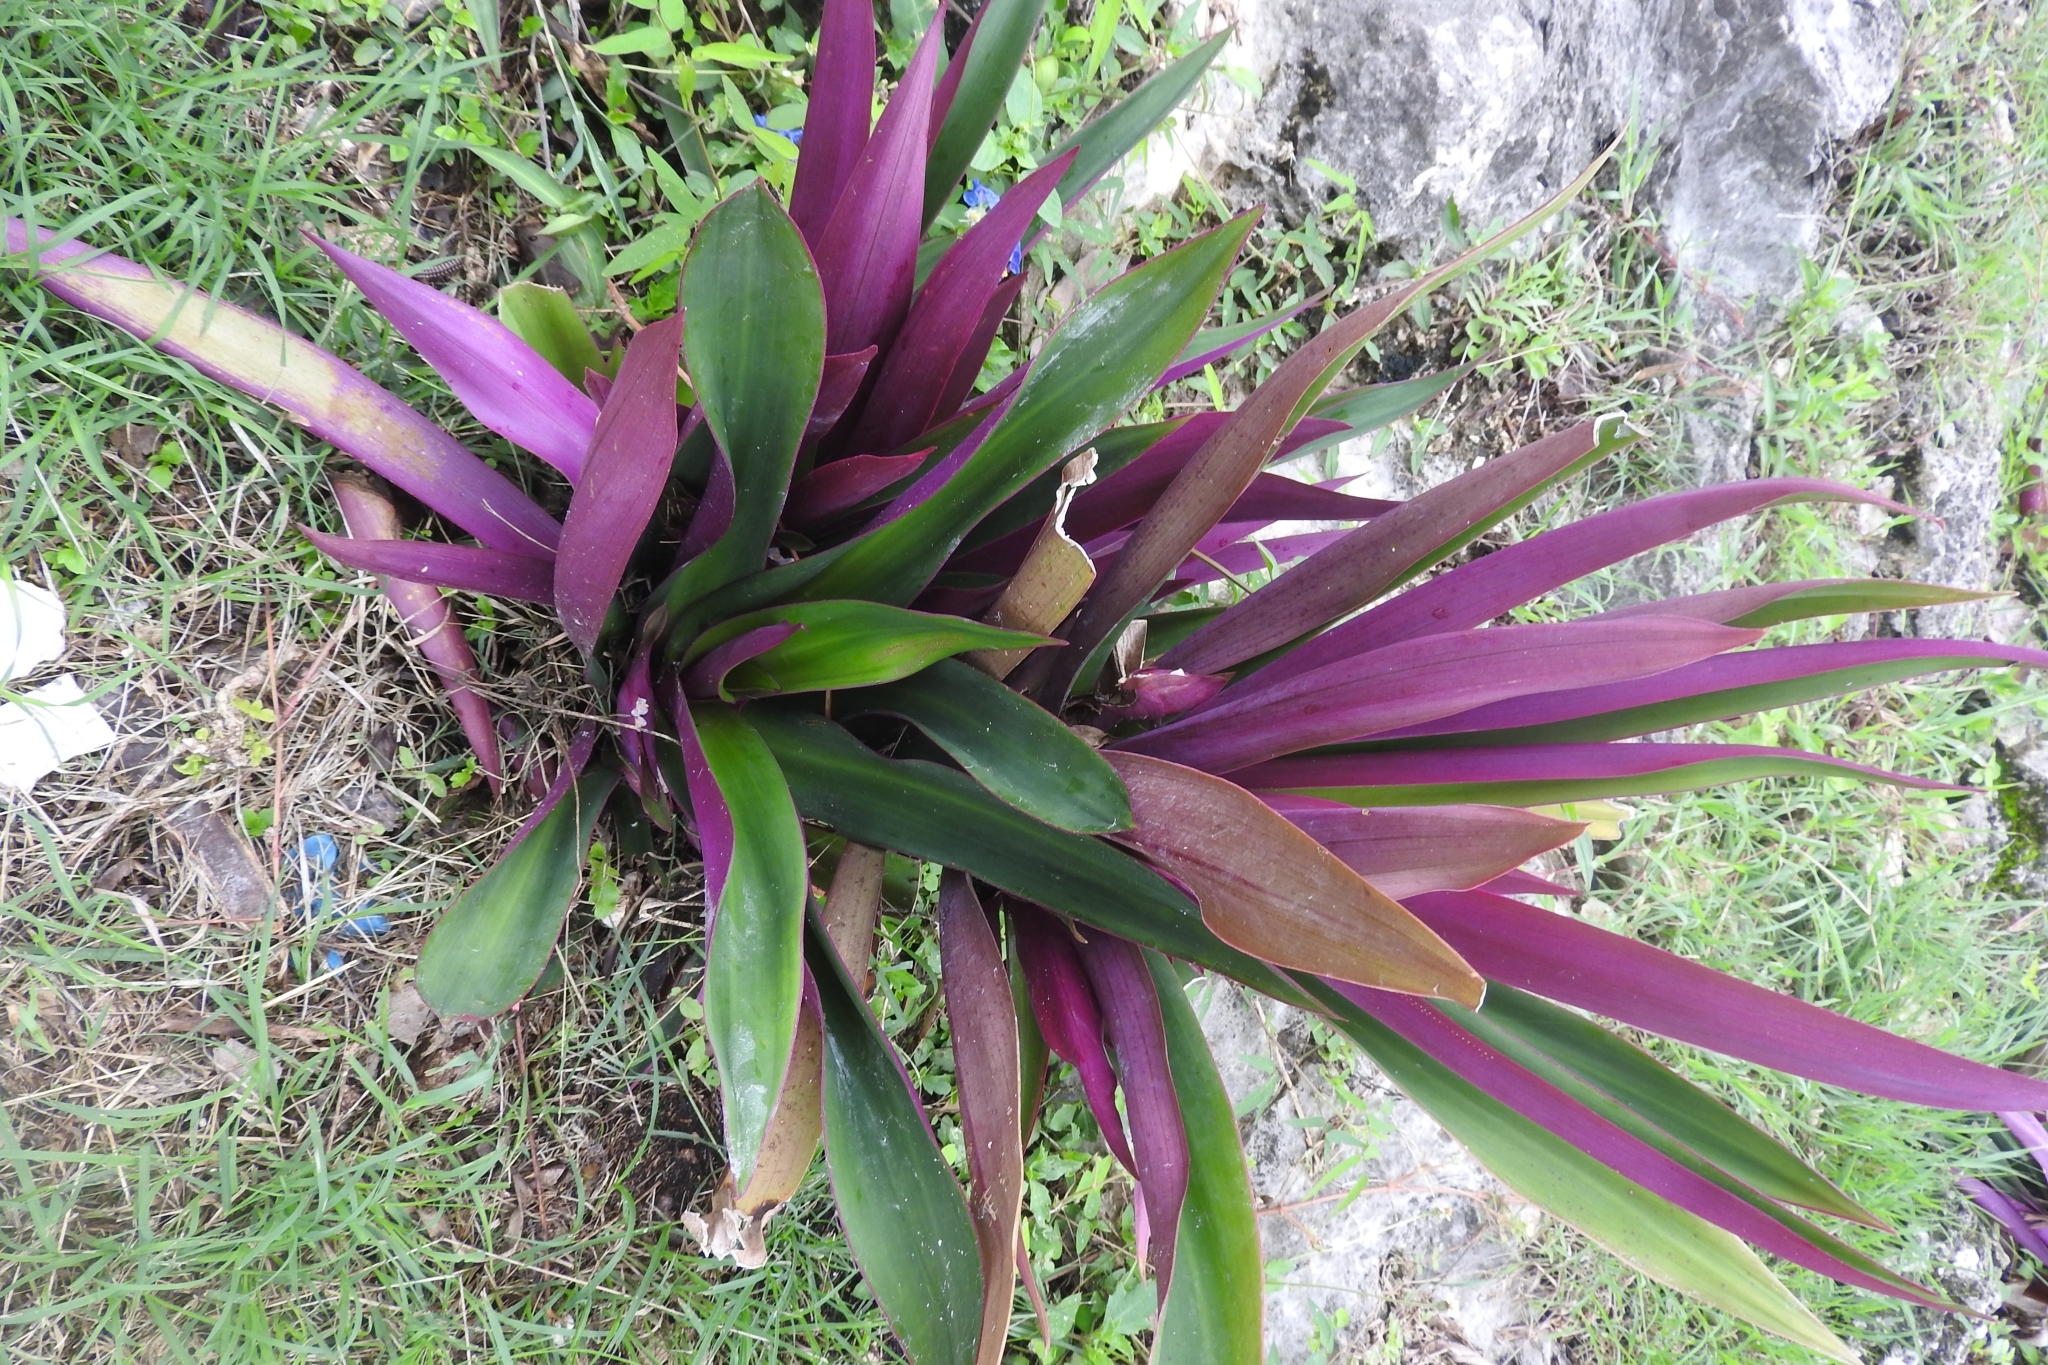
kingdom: Plantae
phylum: Tracheophyta
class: Liliopsida
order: Commelinales
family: Commelinaceae
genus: Tradescantia
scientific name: Tradescantia spathacea
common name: Boatlily
